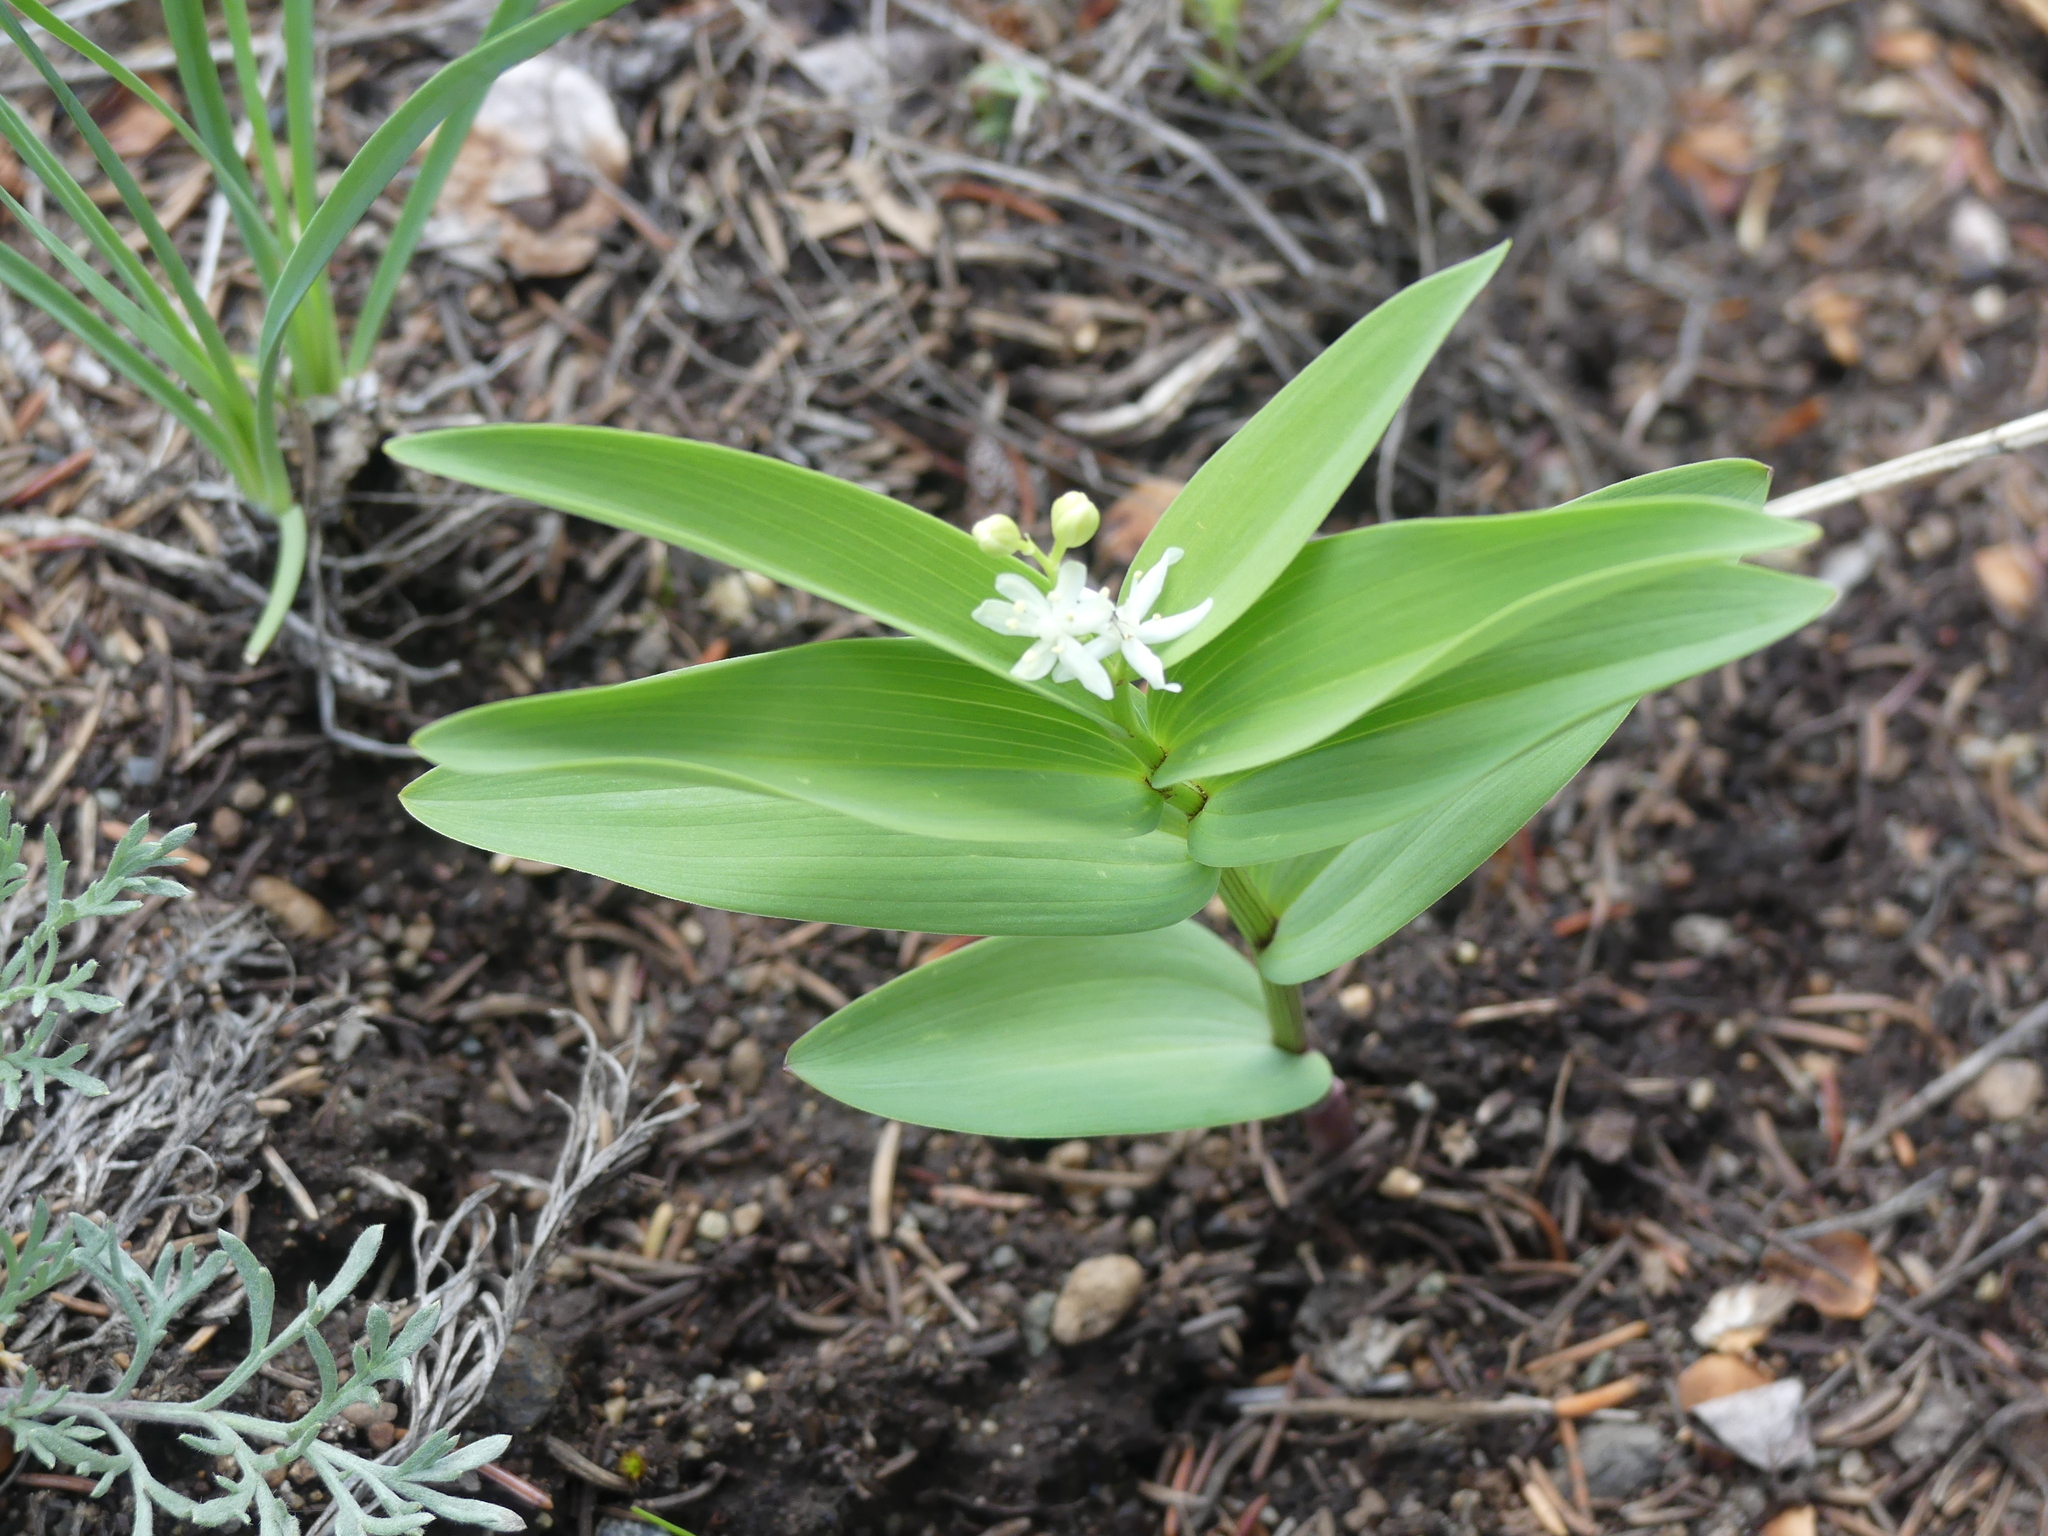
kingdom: Plantae
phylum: Tracheophyta
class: Liliopsida
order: Asparagales
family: Asparagaceae
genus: Maianthemum
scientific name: Maianthemum stellatum
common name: Little false solomon's seal
